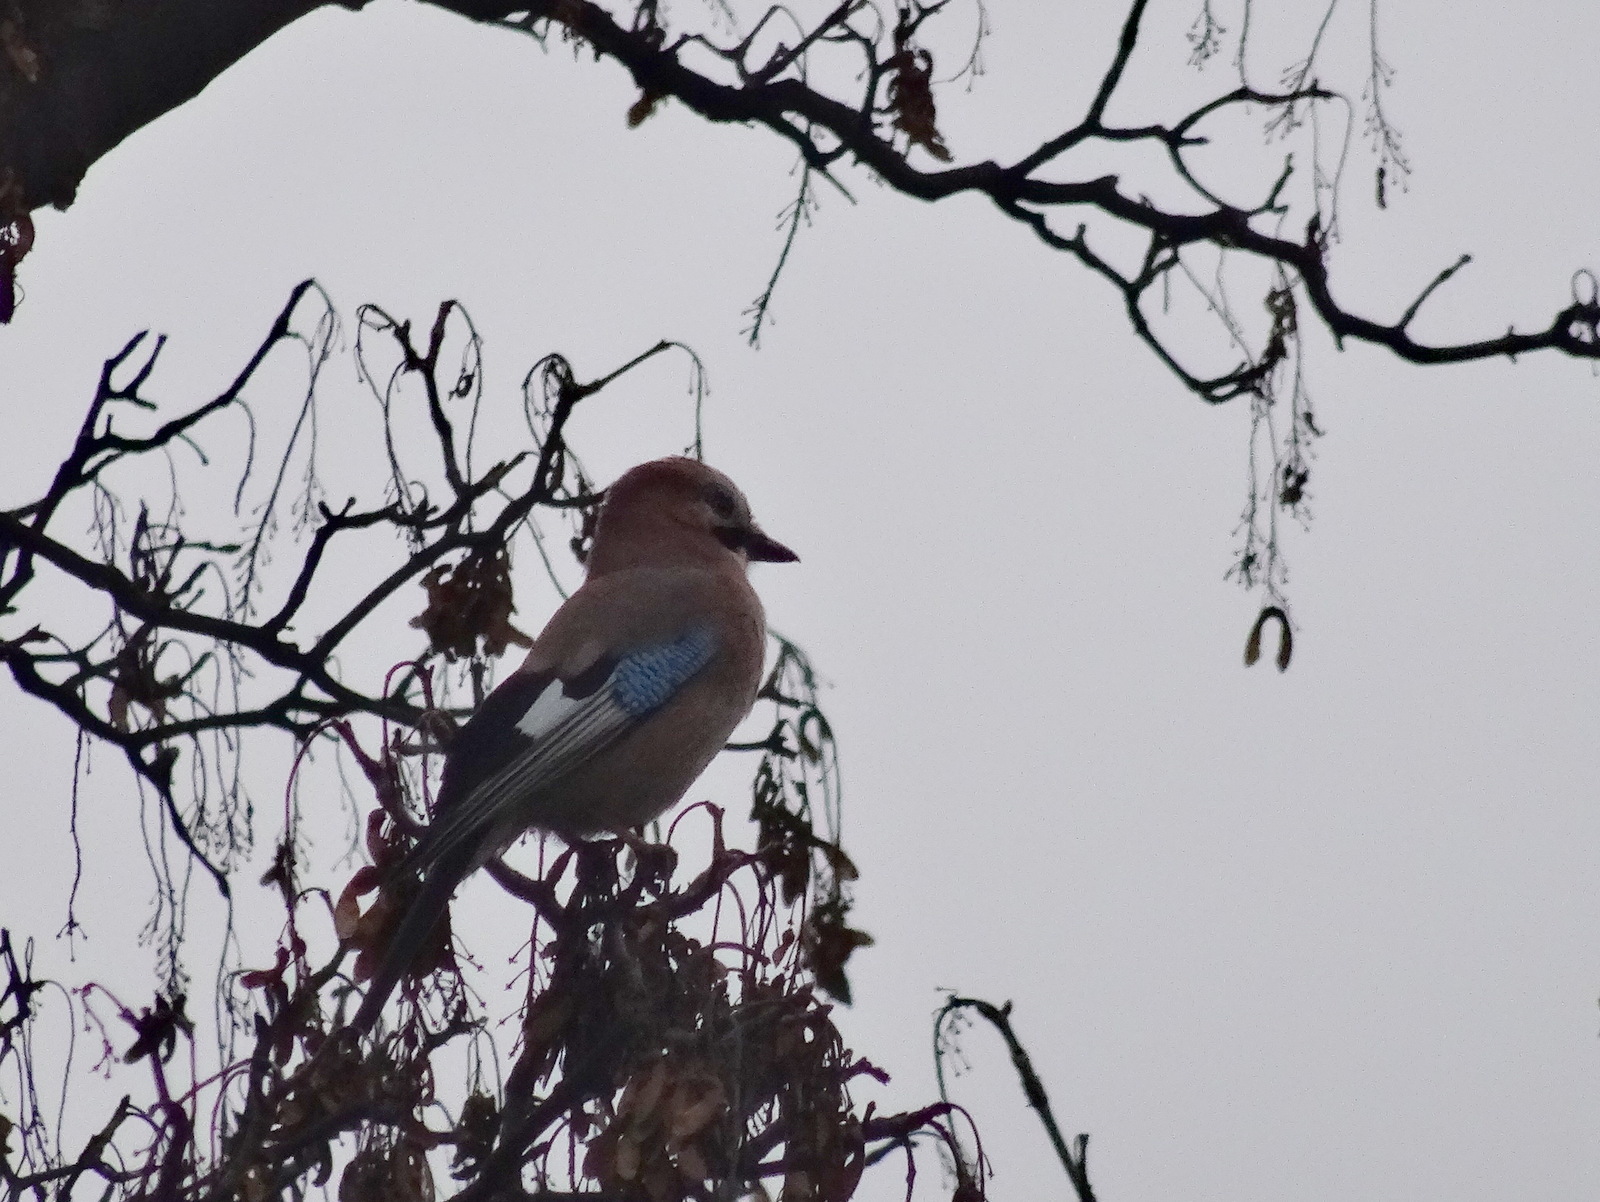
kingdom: Animalia
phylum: Chordata
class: Aves
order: Passeriformes
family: Corvidae
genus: Garrulus
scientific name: Garrulus glandarius
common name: Eurasian jay
